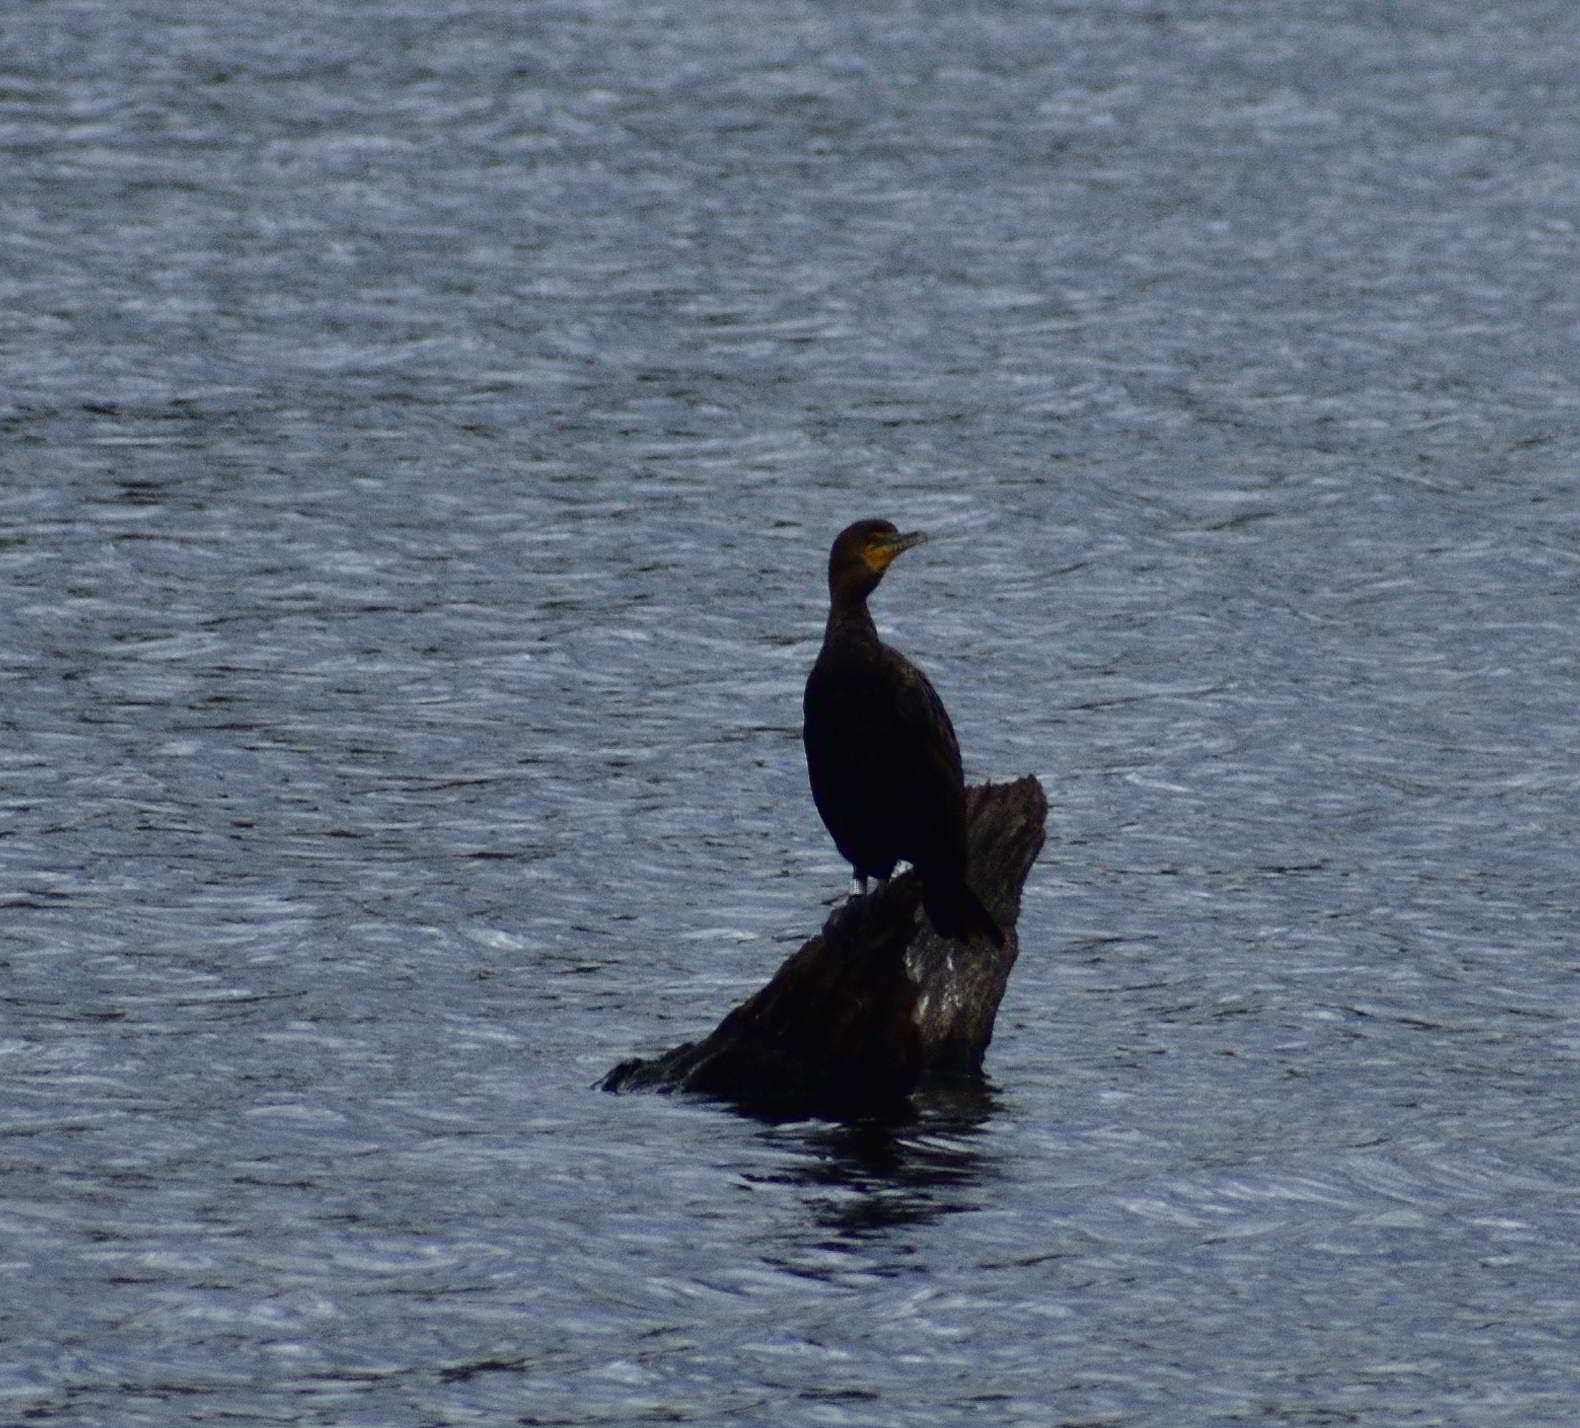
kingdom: Animalia
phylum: Chordata
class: Aves
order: Suliformes
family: Phalacrocoracidae
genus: Phalacrocorax
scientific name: Phalacrocorax auritus
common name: Double-crested cormorant
